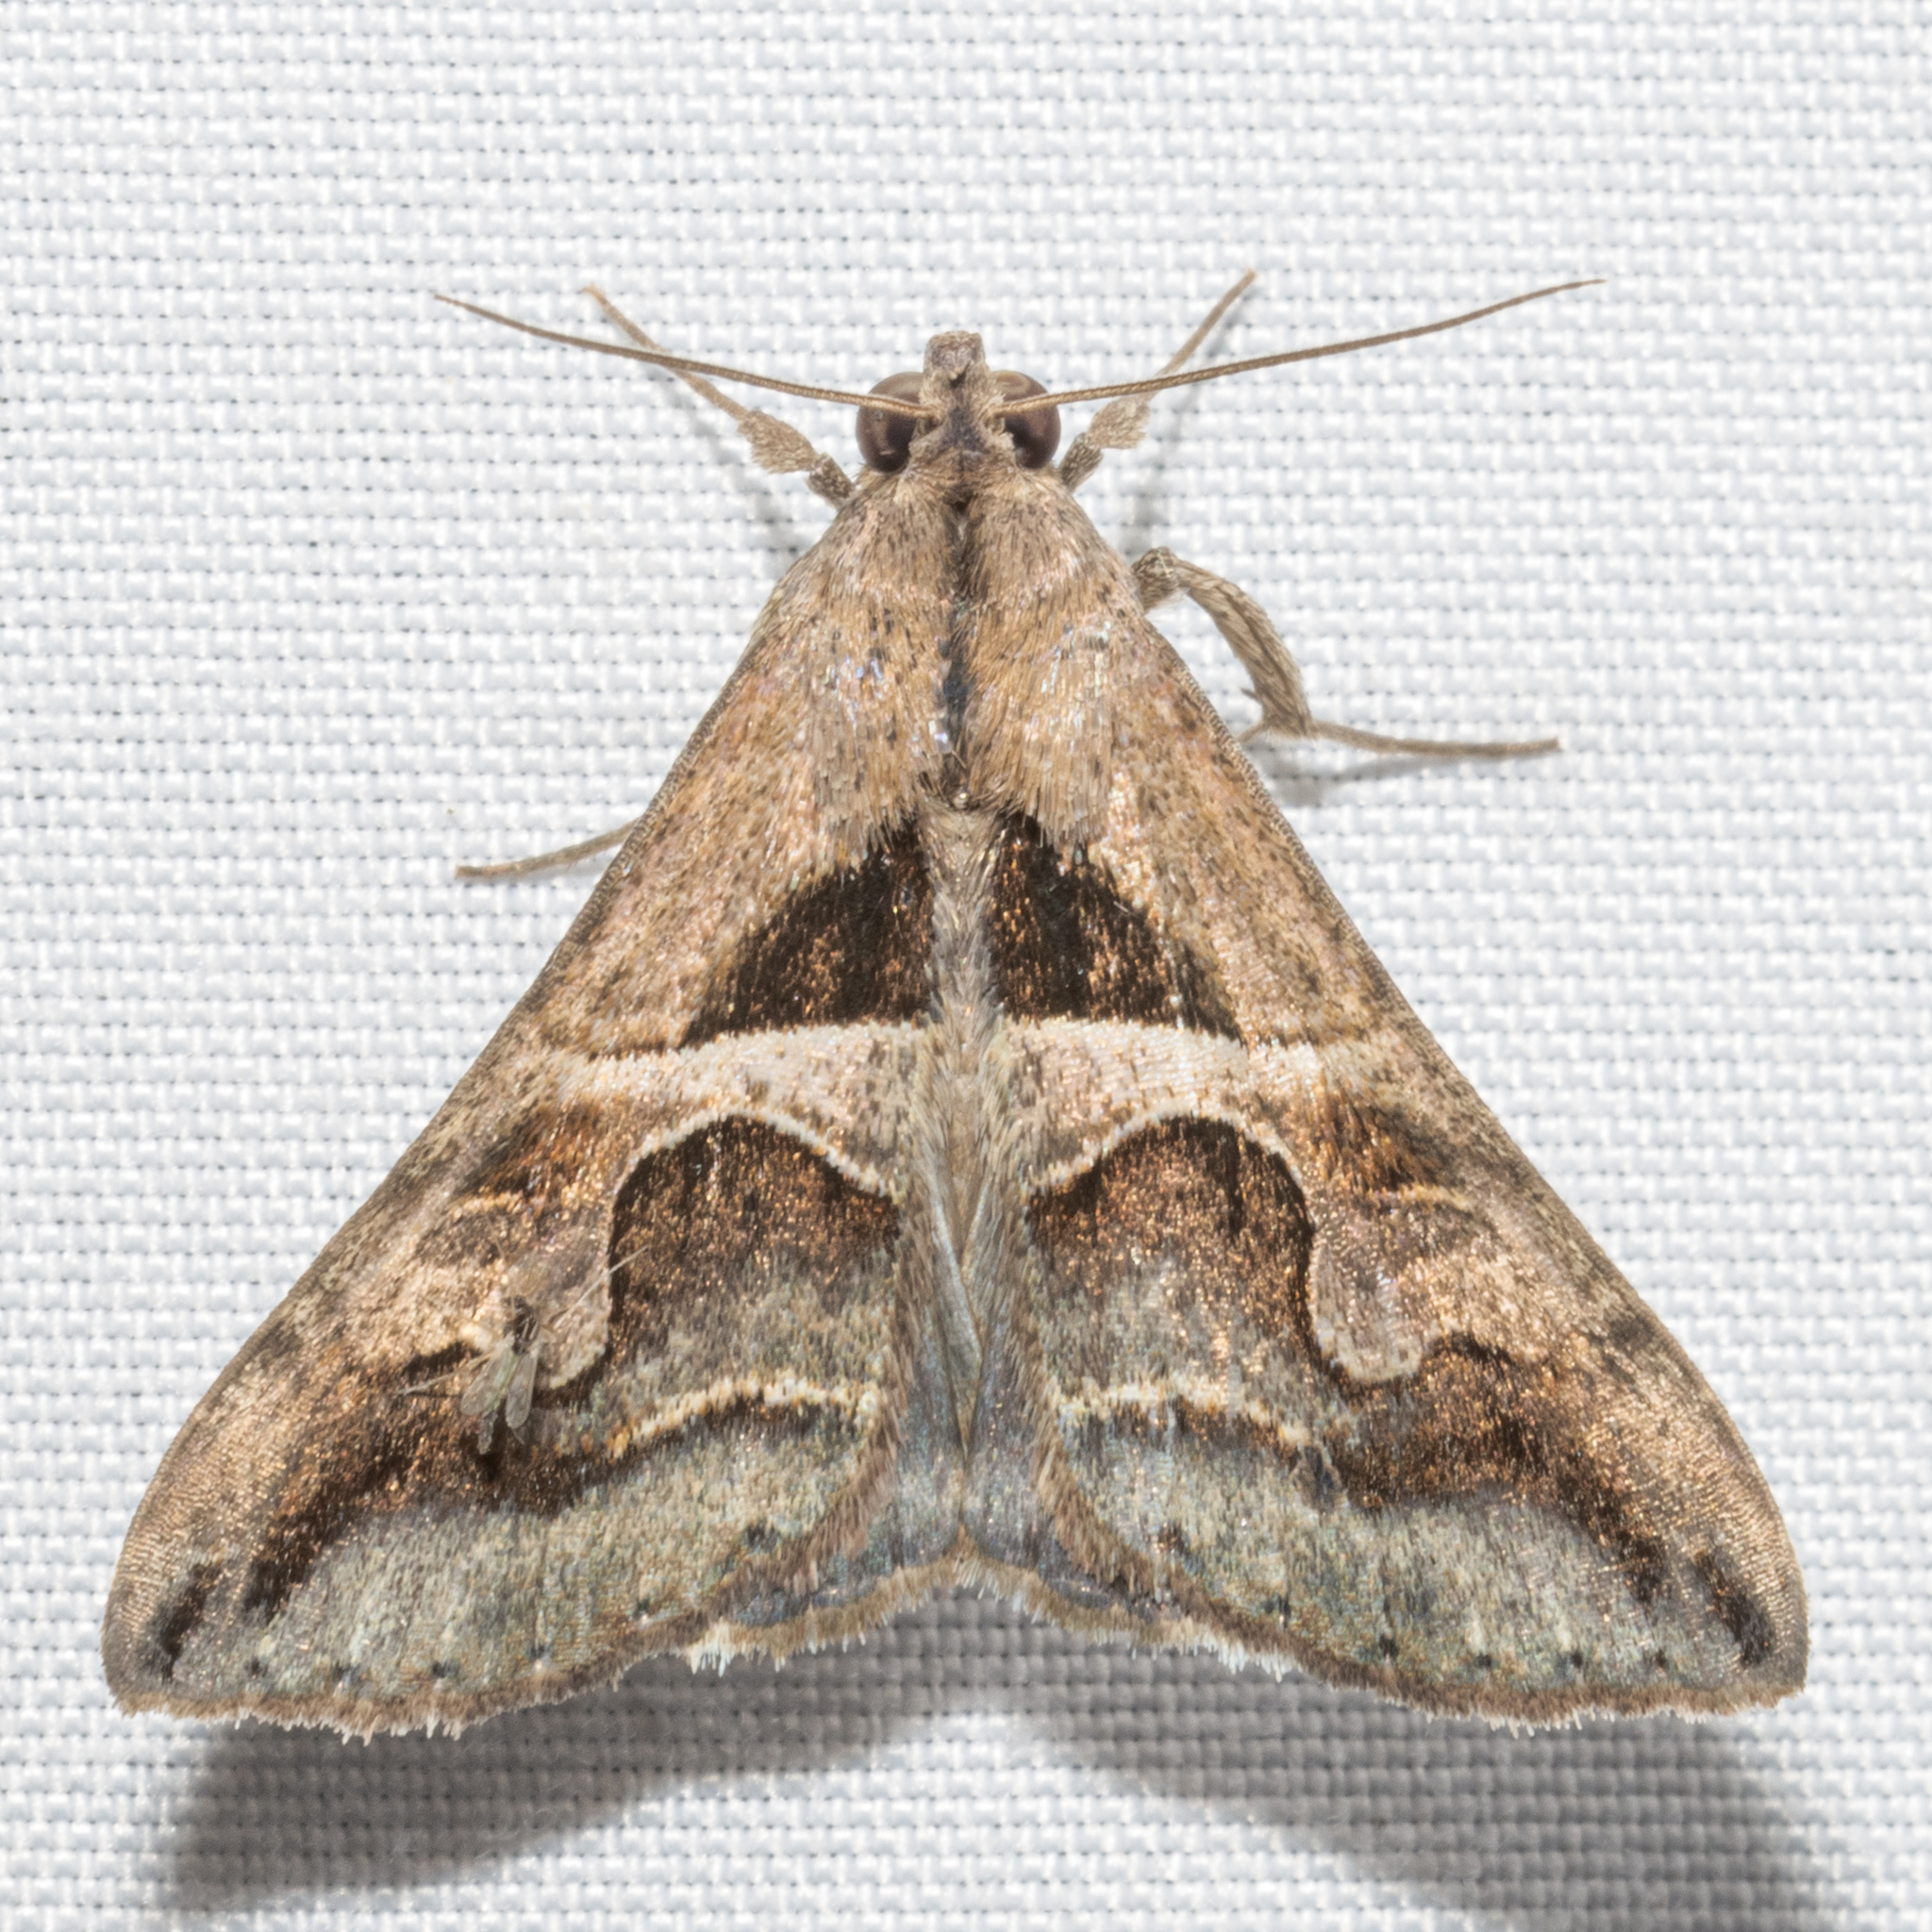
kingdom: Animalia
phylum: Arthropoda
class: Insecta
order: Lepidoptera
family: Erebidae
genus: Melipotis
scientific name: Melipotis cellaris
